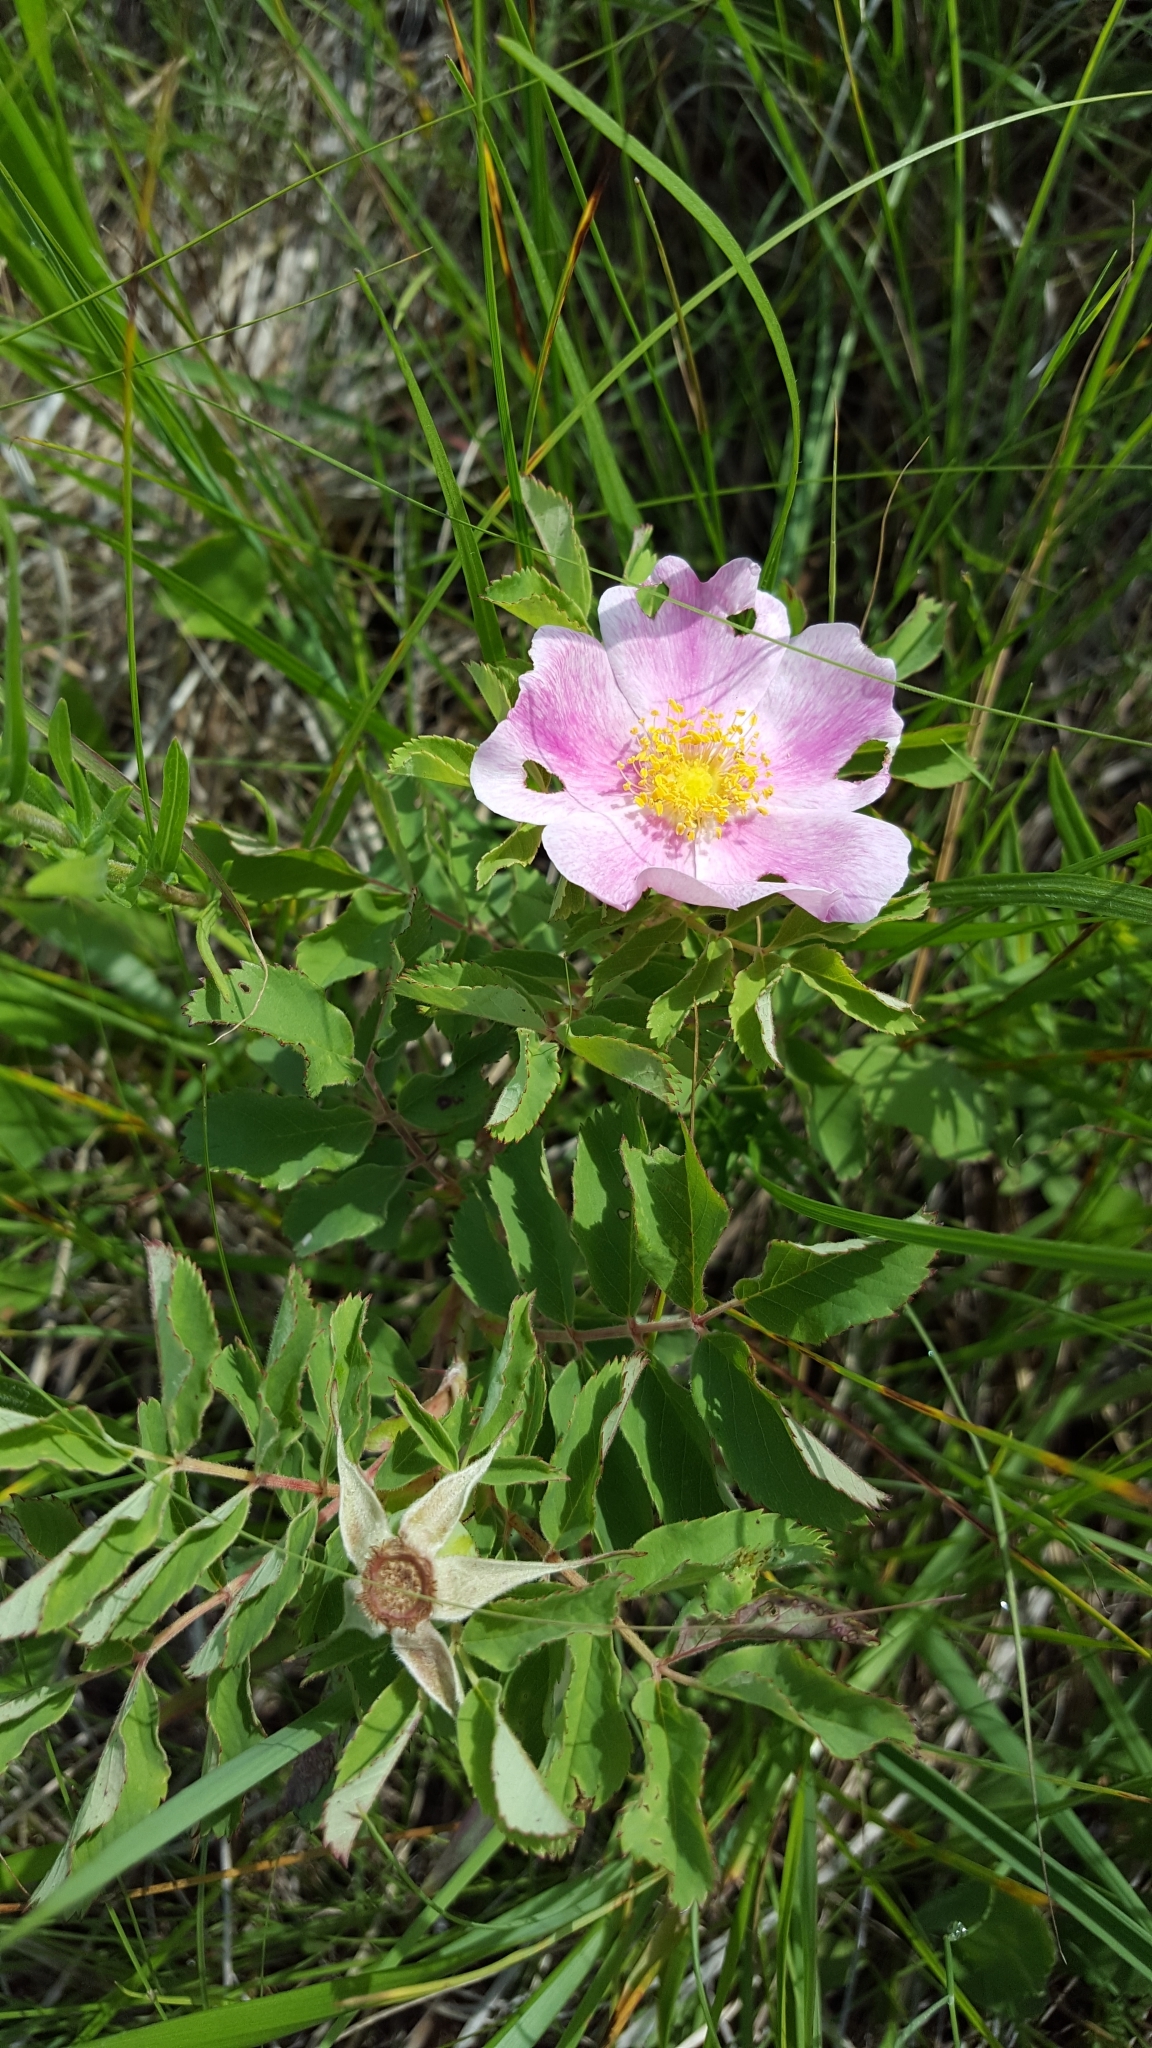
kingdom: Plantae
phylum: Tracheophyta
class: Magnoliopsida
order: Rosales
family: Rosaceae
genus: Rosa
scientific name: Rosa arkansana
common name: Prairie rose
